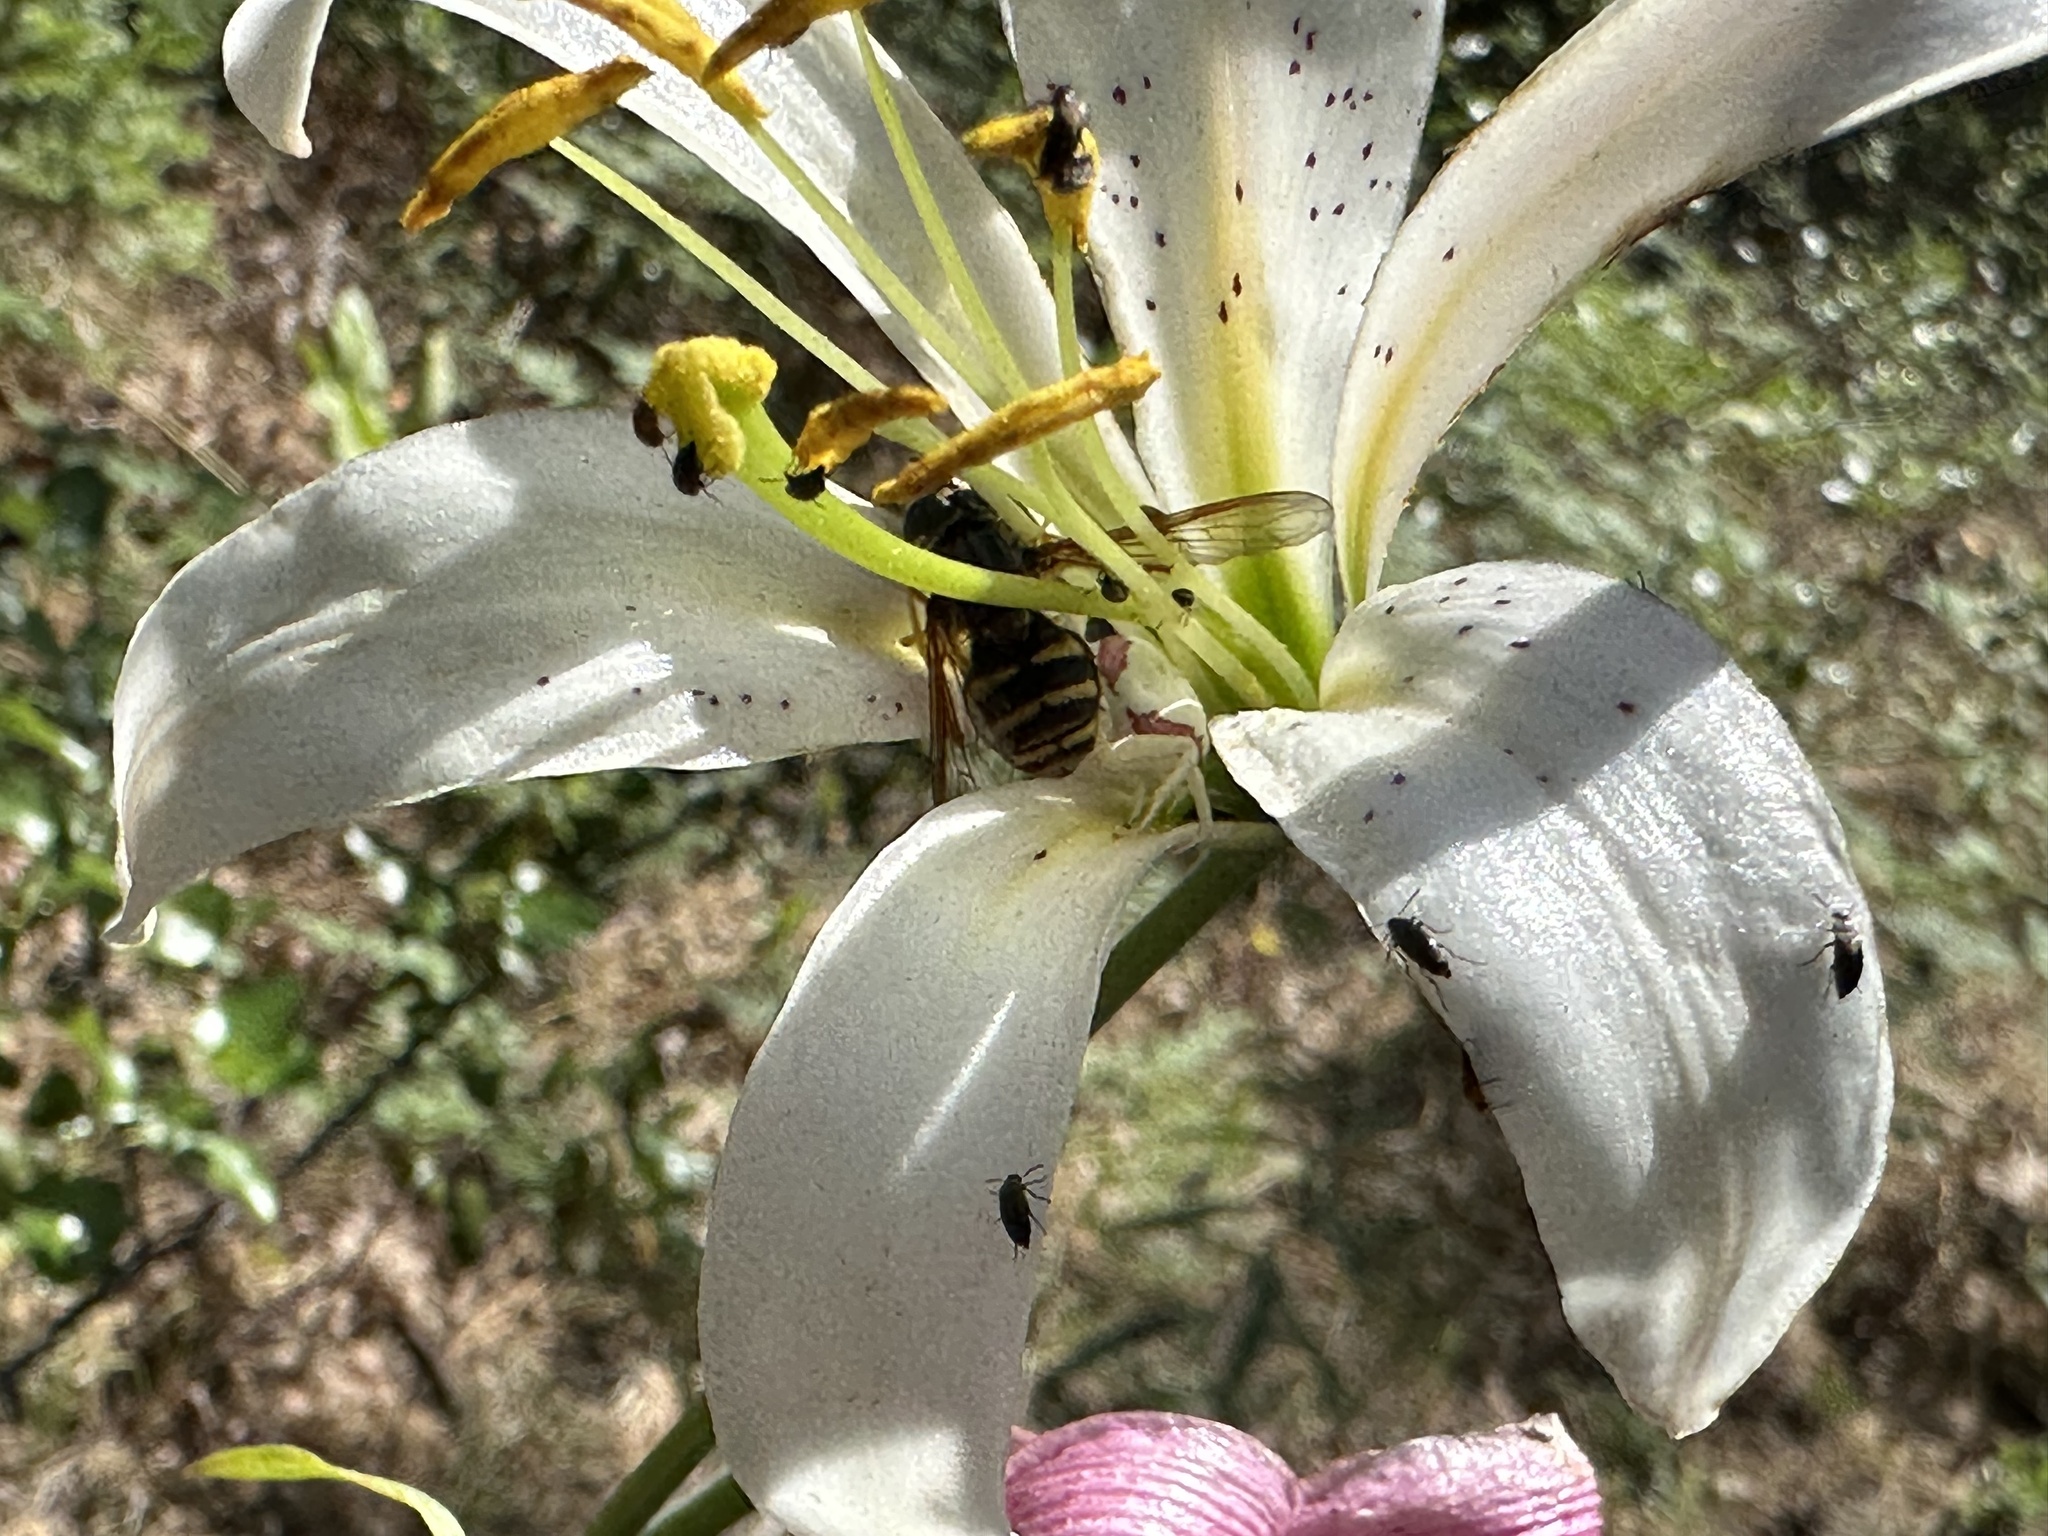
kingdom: Plantae
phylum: Tracheophyta
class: Liliopsida
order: Liliales
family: Liliaceae
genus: Lilium
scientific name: Lilium washingtonianum
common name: Washington lily
